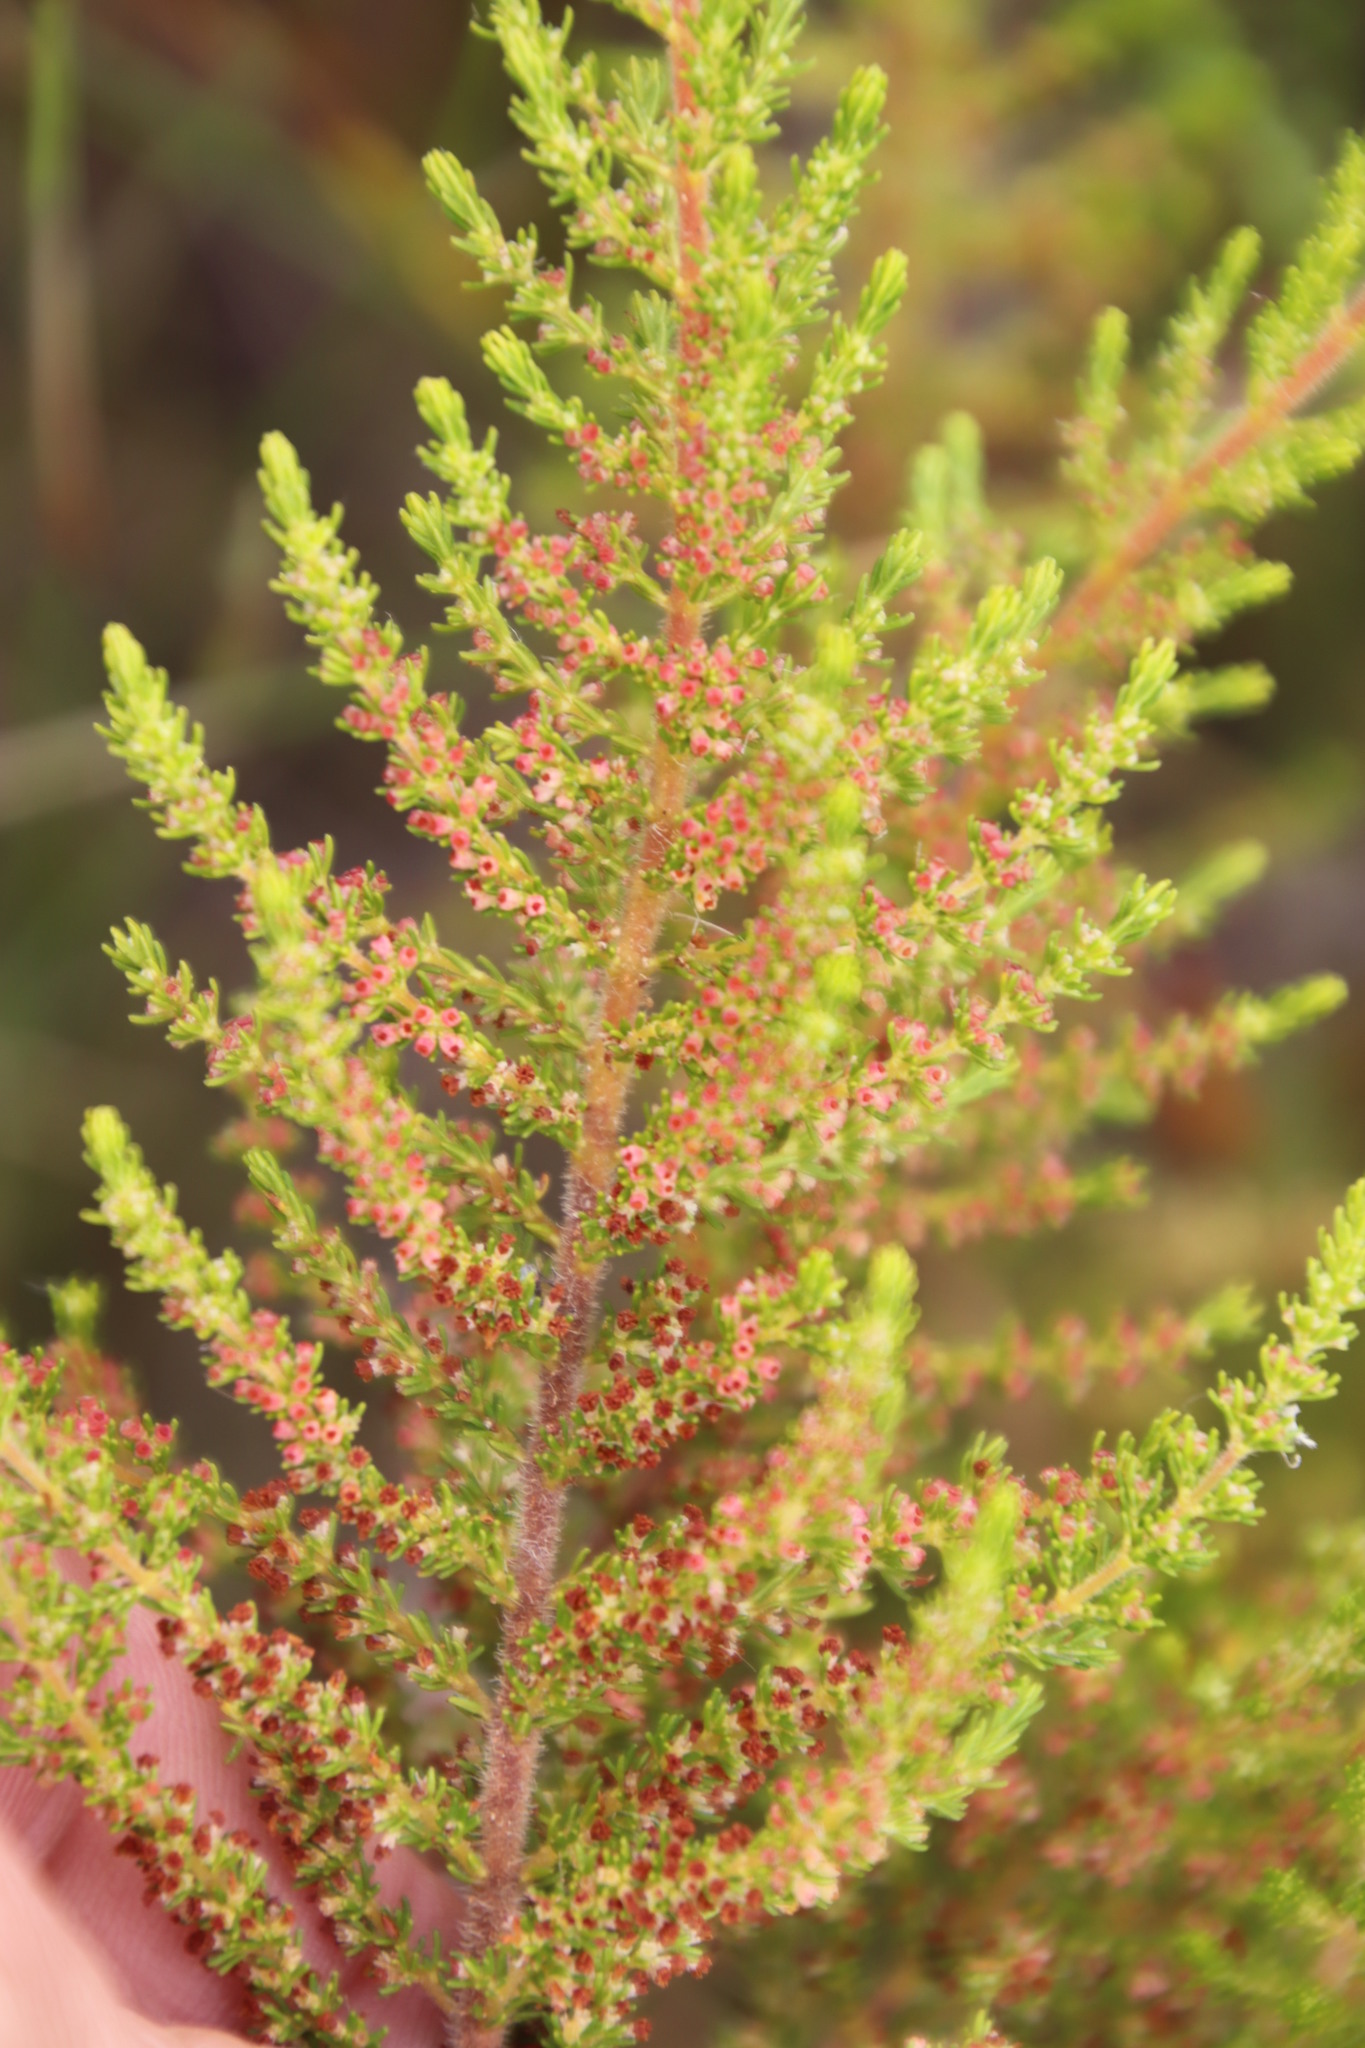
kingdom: Plantae
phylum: Tracheophyta
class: Magnoliopsida
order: Ericales
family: Ericaceae
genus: Erica
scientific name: Erica muscosa
